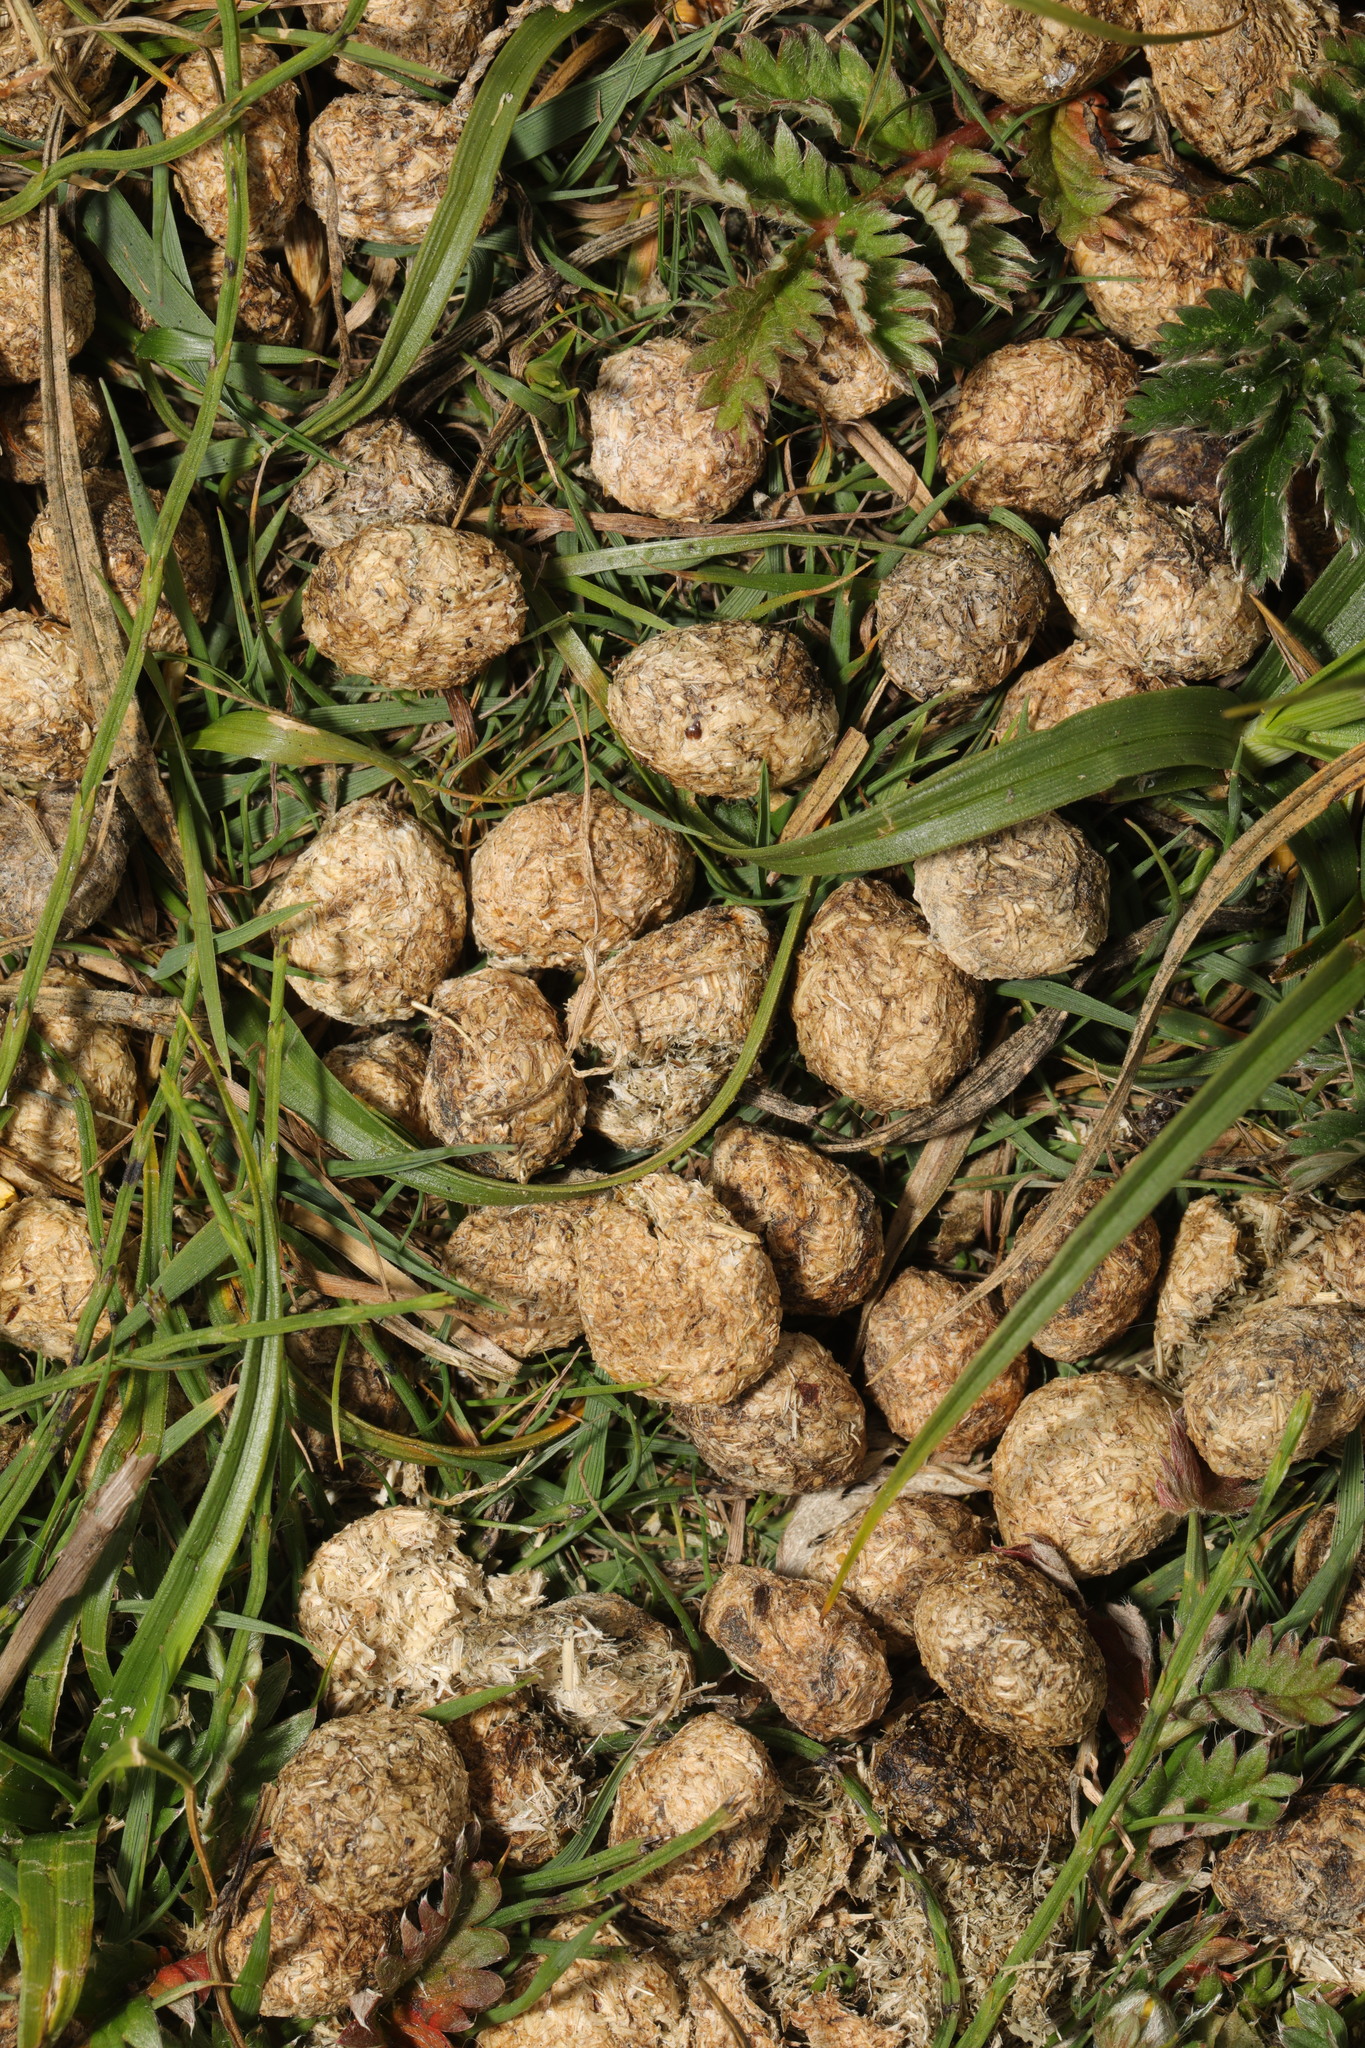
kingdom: Animalia
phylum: Chordata
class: Mammalia
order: Lagomorpha
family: Leporidae
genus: Oryctolagus
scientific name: Oryctolagus cuniculus
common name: European rabbit
